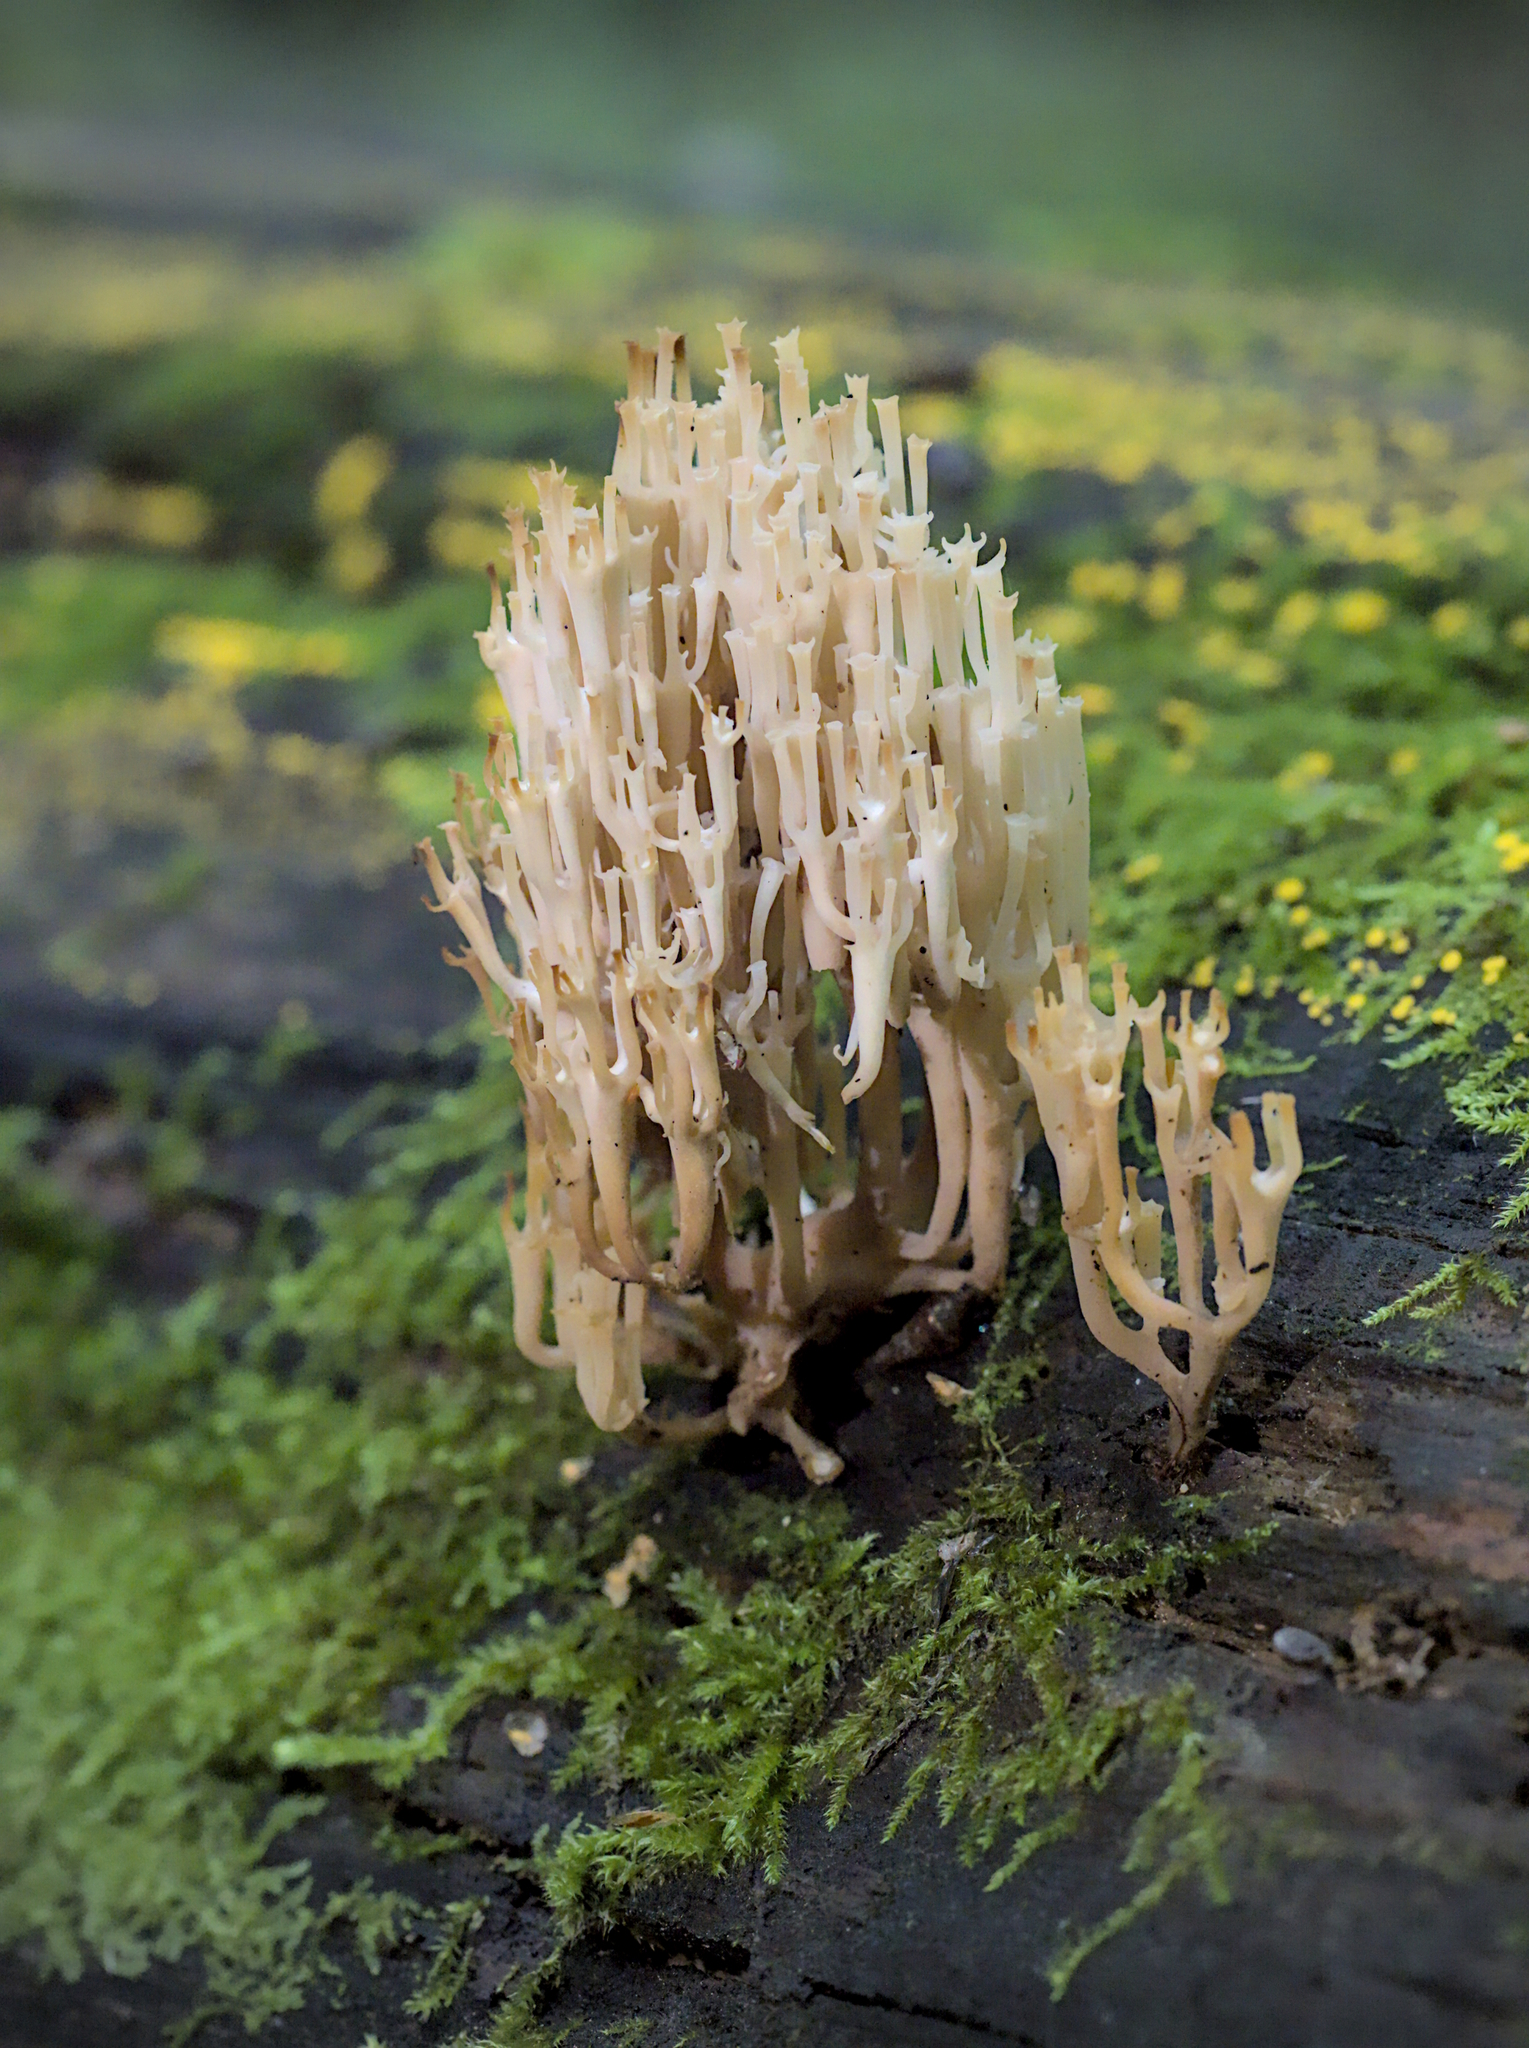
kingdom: Fungi
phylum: Basidiomycota
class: Agaricomycetes
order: Russulales
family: Auriscalpiaceae
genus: Artomyces
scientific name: Artomyces pyxidatus
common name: Crown-tipped coral fungus
